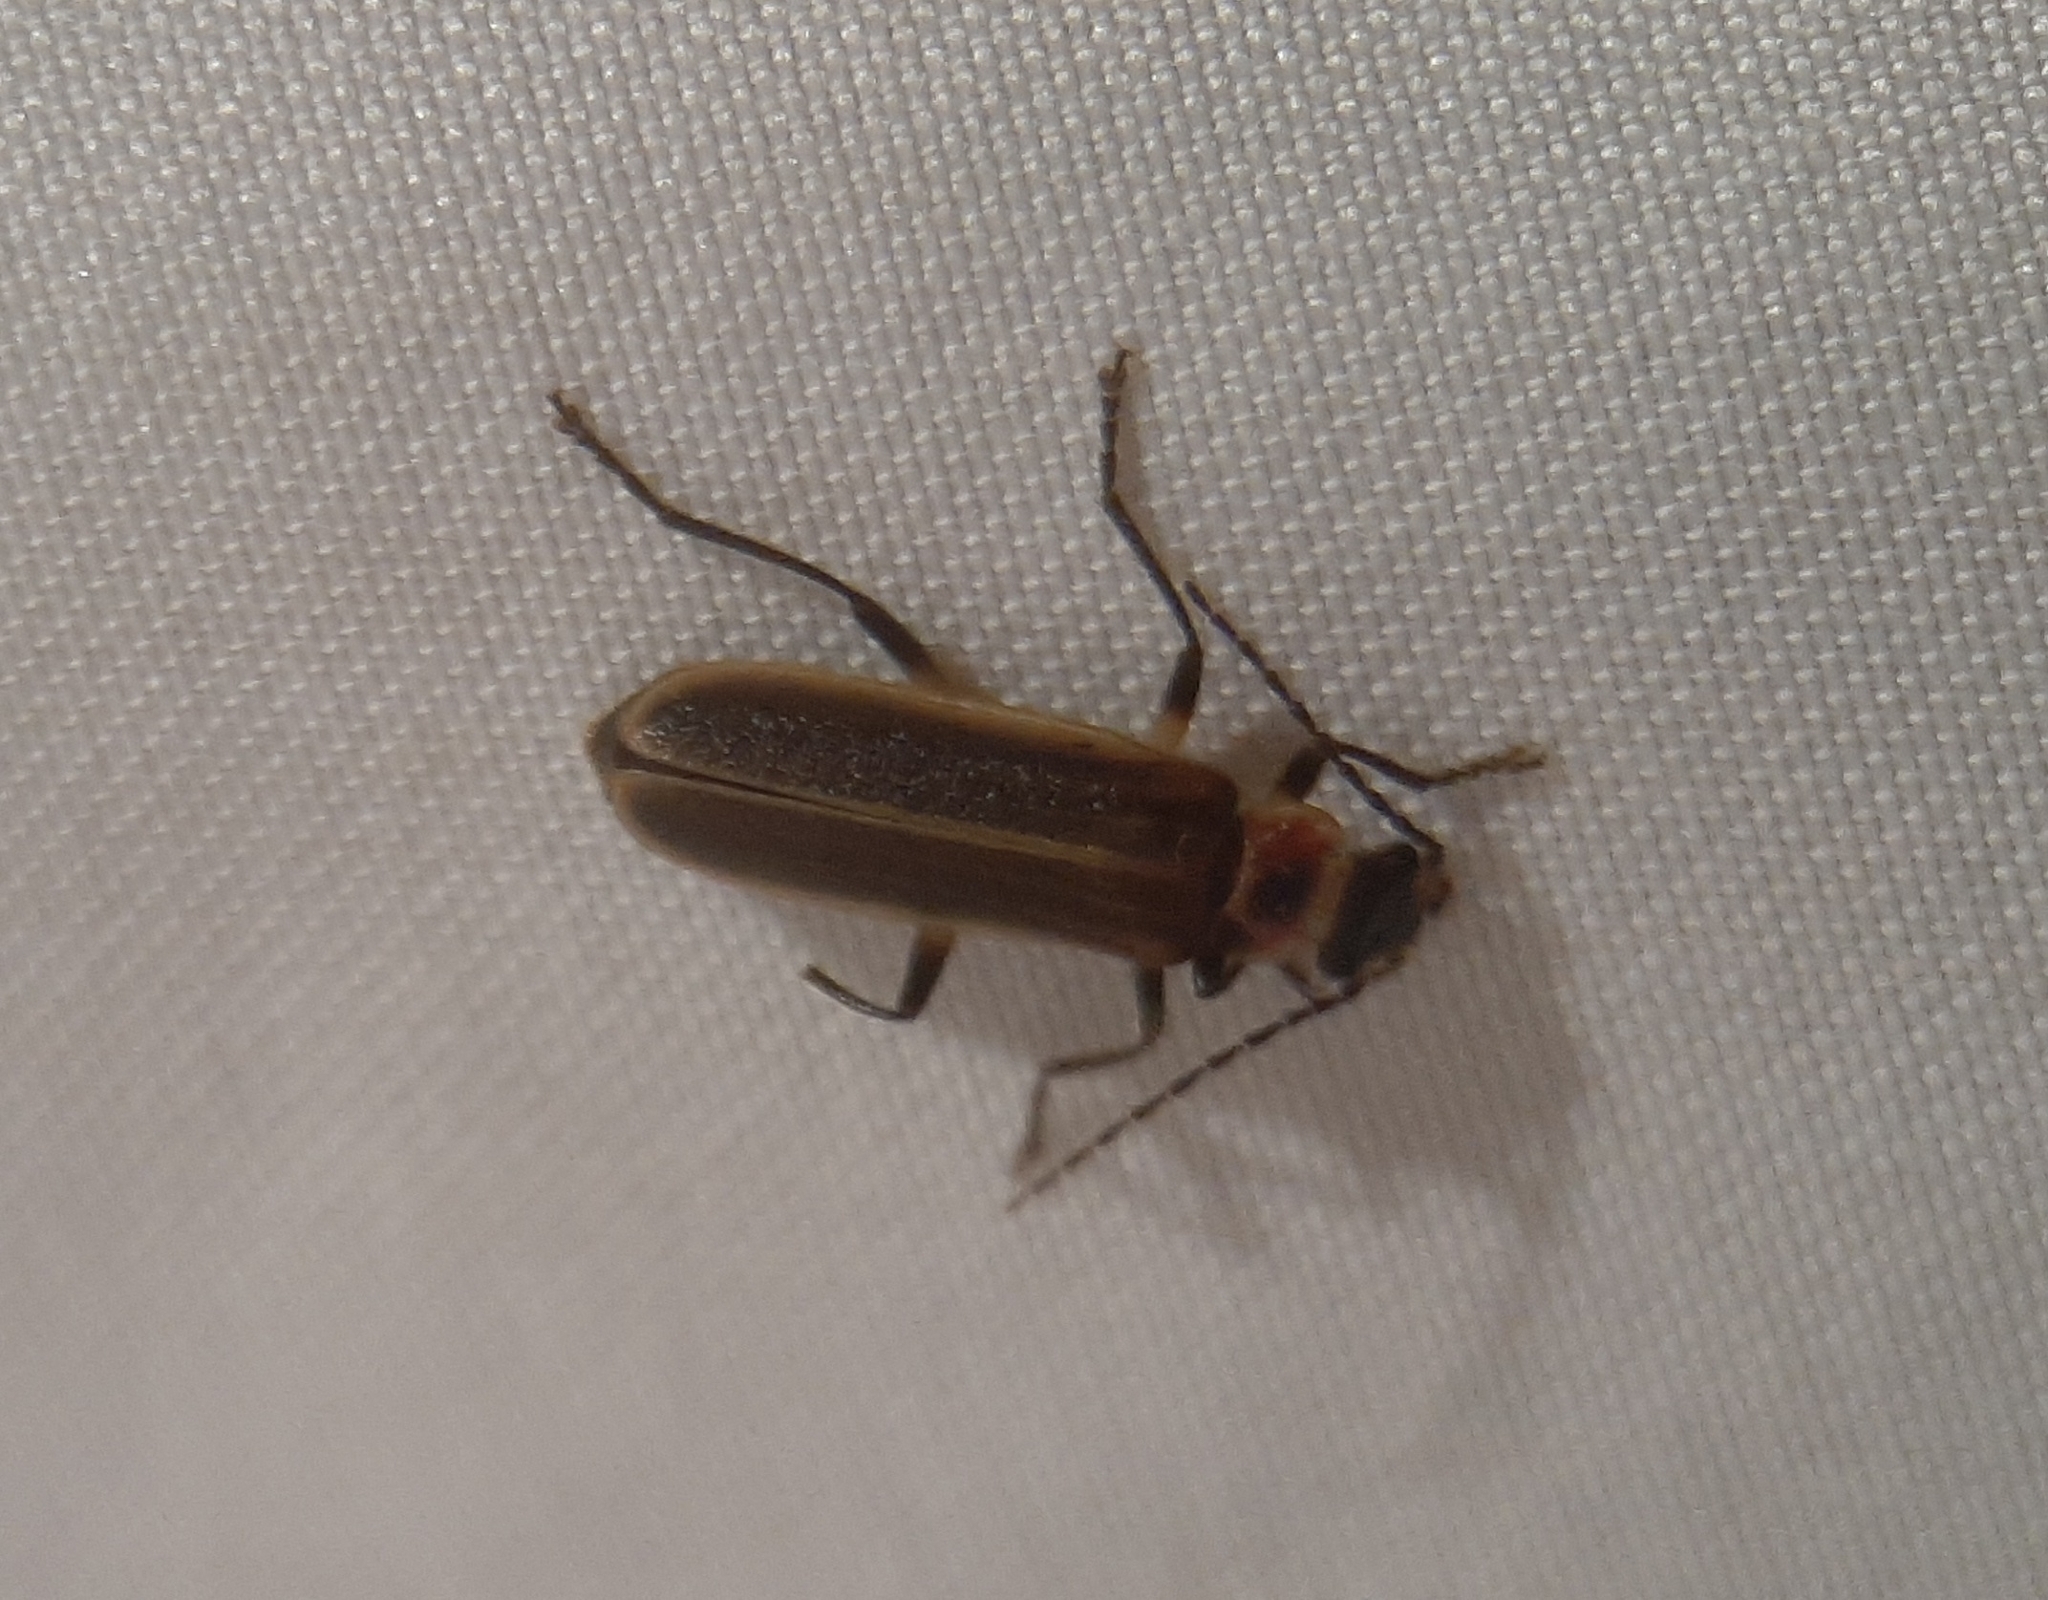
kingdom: Animalia
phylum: Arthropoda
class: Insecta
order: Coleoptera
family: Cantharidae
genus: Podabrus
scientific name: Podabrus appendiculatus
